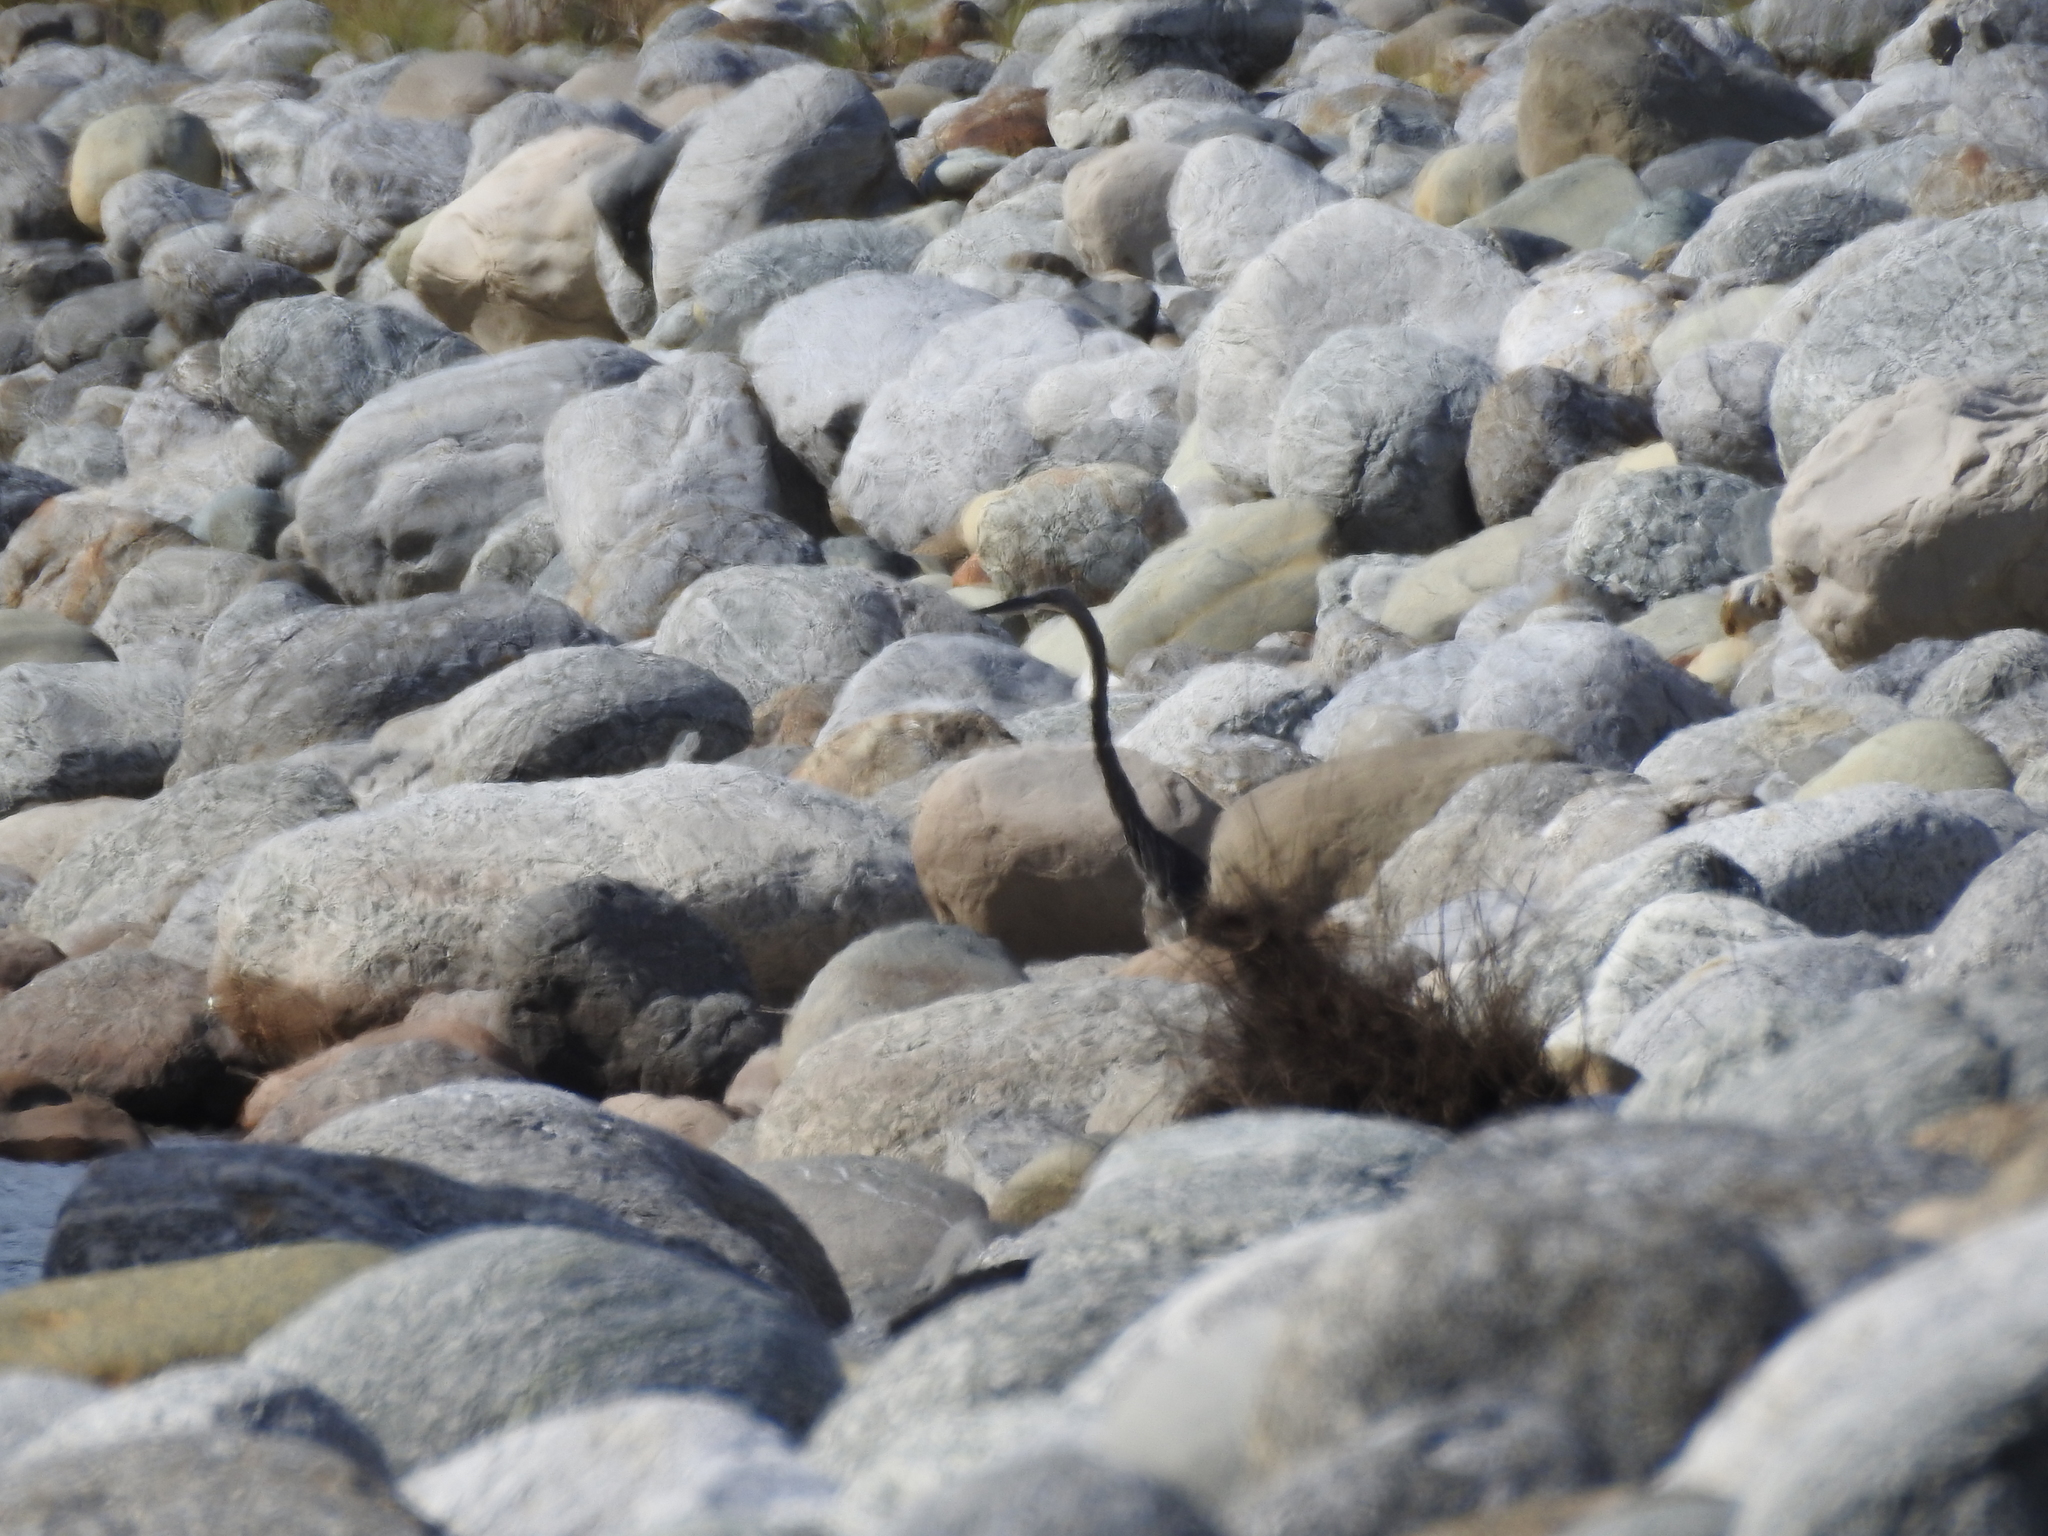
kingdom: Animalia
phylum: Chordata
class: Aves
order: Pelecaniformes
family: Ardeidae
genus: Ardea
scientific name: Ardea insignis
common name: White-bellied heron
